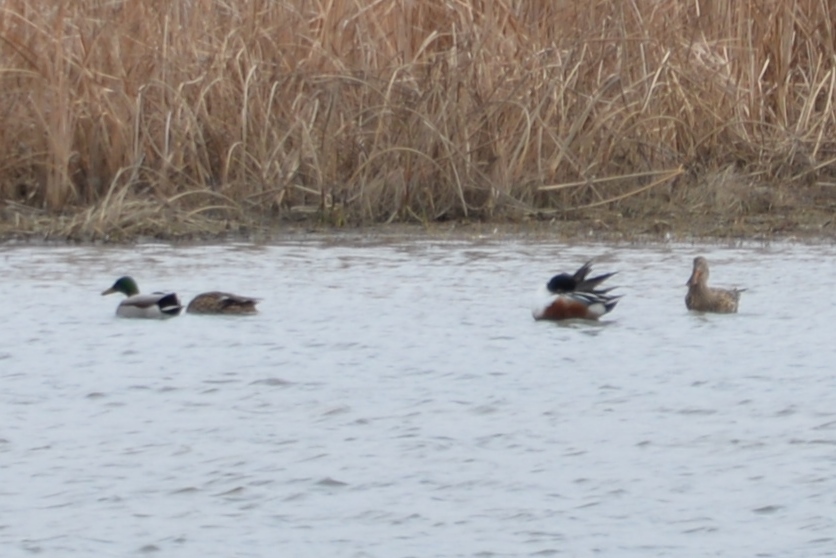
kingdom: Animalia
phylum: Chordata
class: Aves
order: Anseriformes
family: Anatidae
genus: Spatula
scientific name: Spatula clypeata
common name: Northern shoveler
